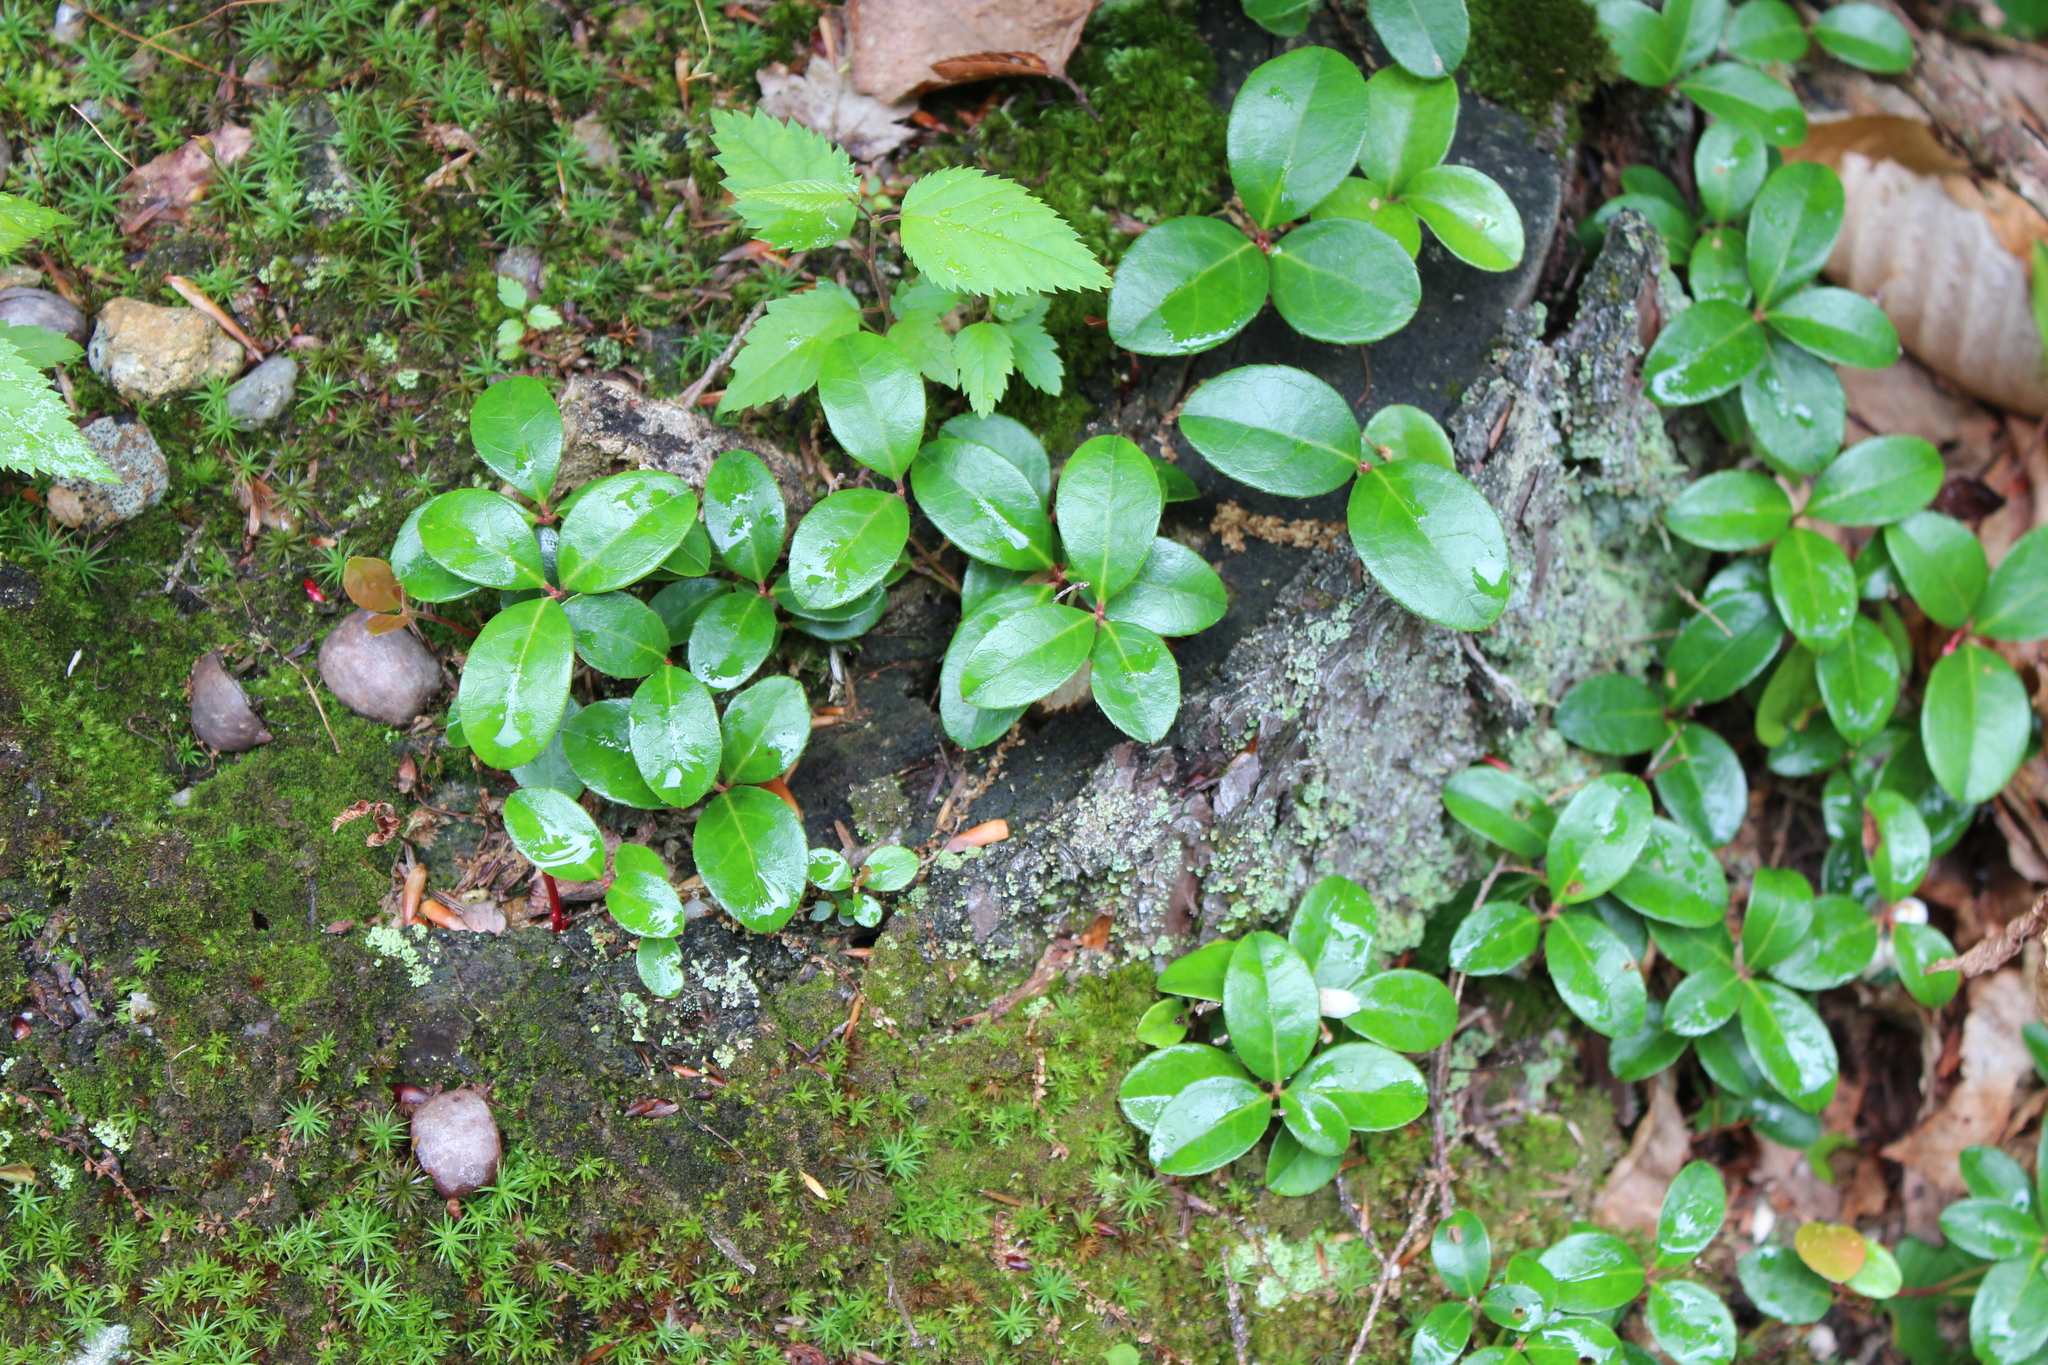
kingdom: Plantae
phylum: Tracheophyta
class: Magnoliopsida
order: Ericales
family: Ericaceae
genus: Gaultheria
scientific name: Gaultheria procumbens
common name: Checkerberry
